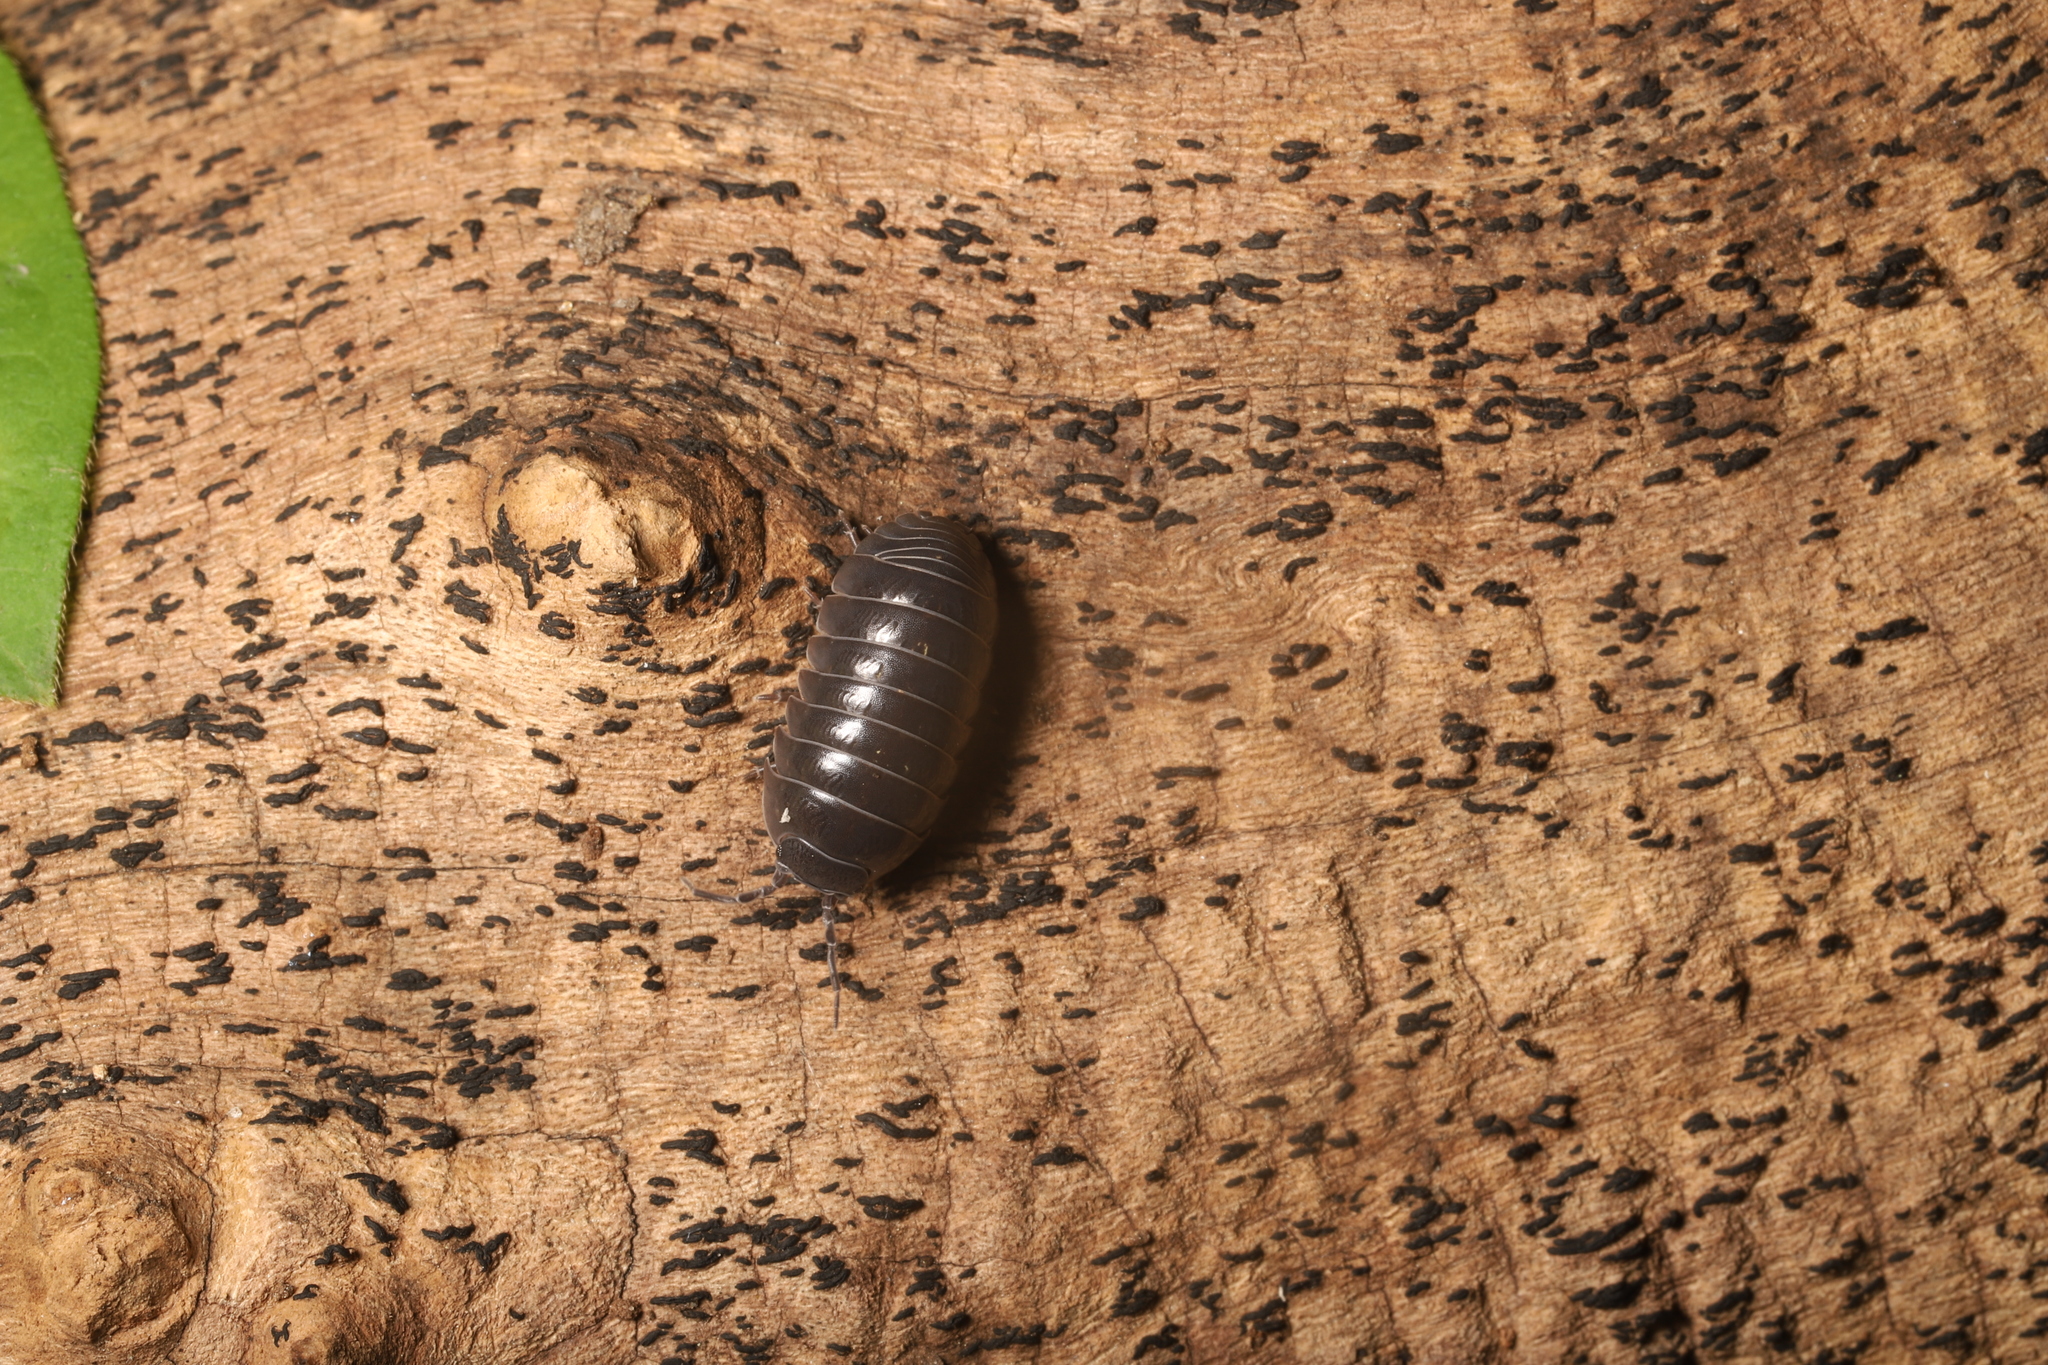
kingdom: Animalia
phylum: Arthropoda
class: Malacostraca
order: Isopoda
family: Armadillidiidae
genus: Armadillidium
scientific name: Armadillidium vulgare
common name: Common pill woodlouse
